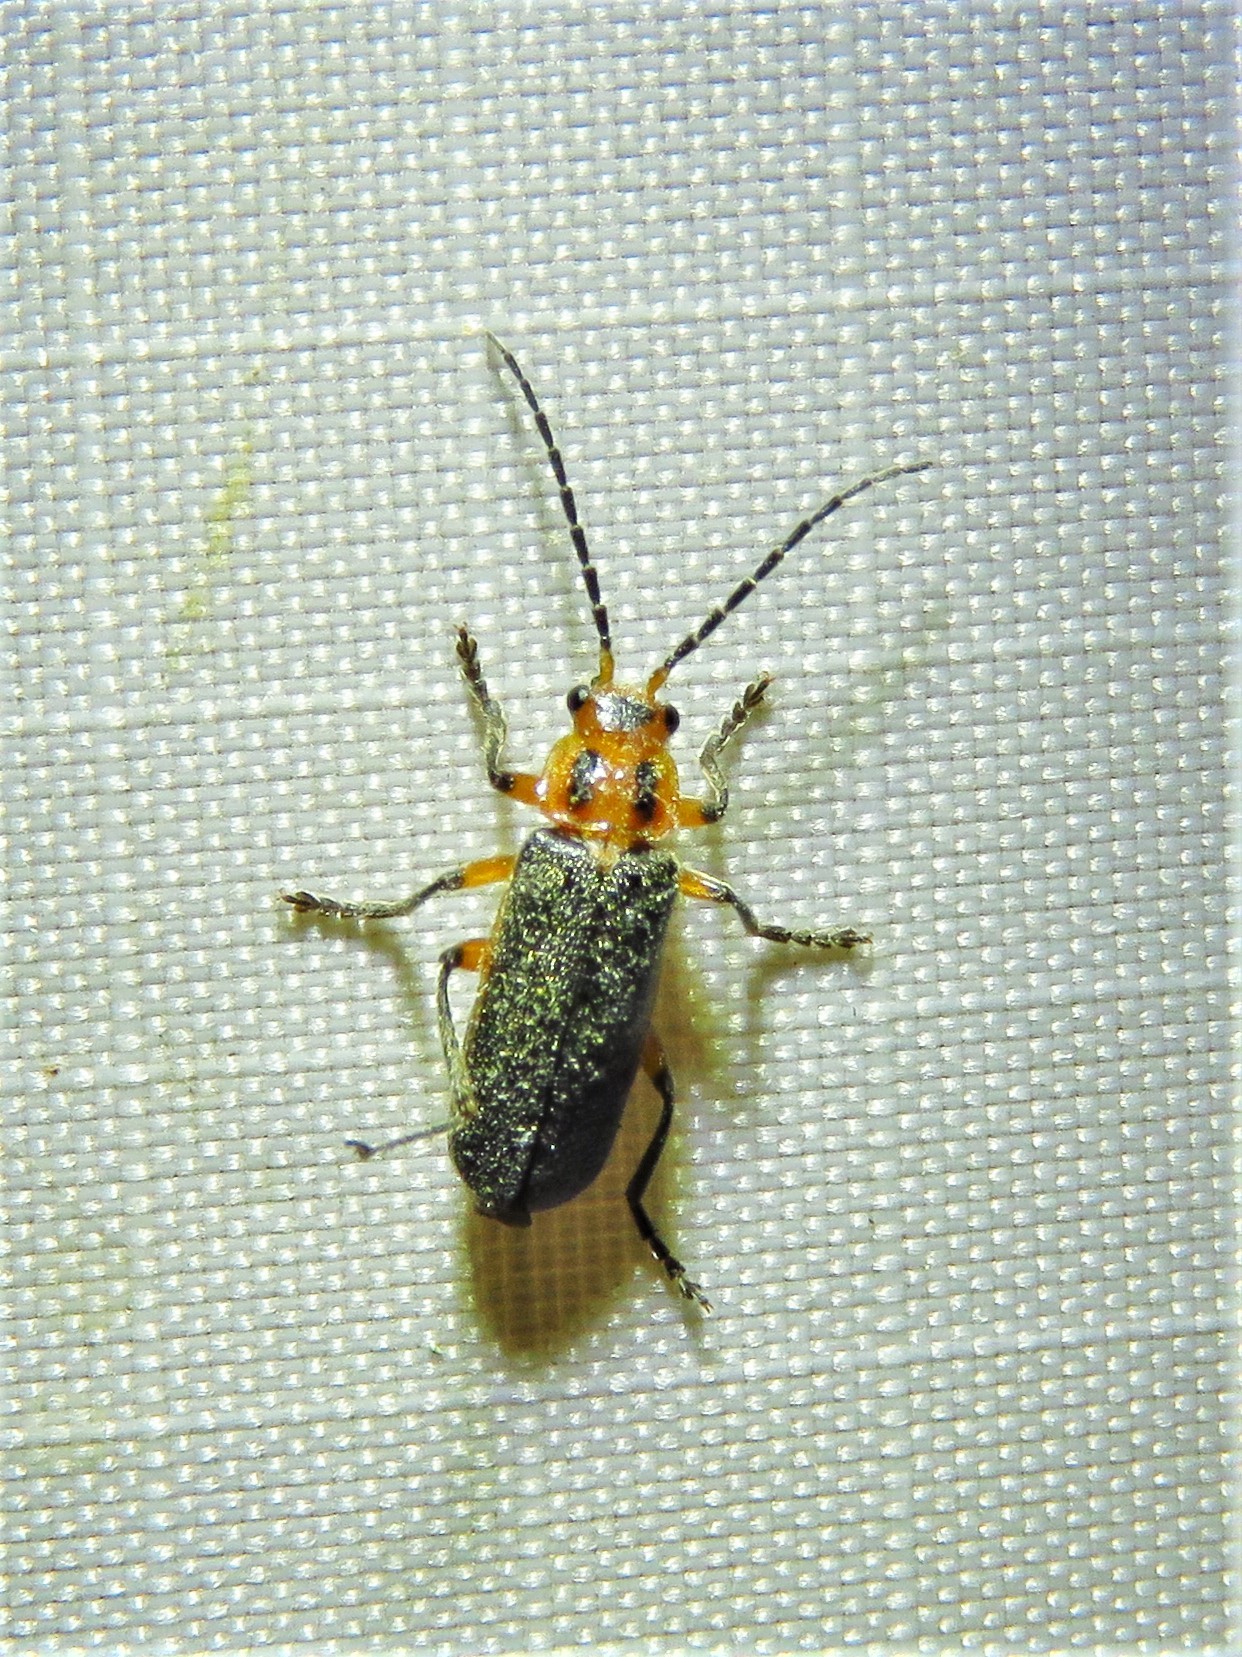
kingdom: Animalia
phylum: Arthropoda
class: Insecta
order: Coleoptera
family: Cantharidae
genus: Atalantycha
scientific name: Atalantycha bilineata
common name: Two-lined leatherwing
